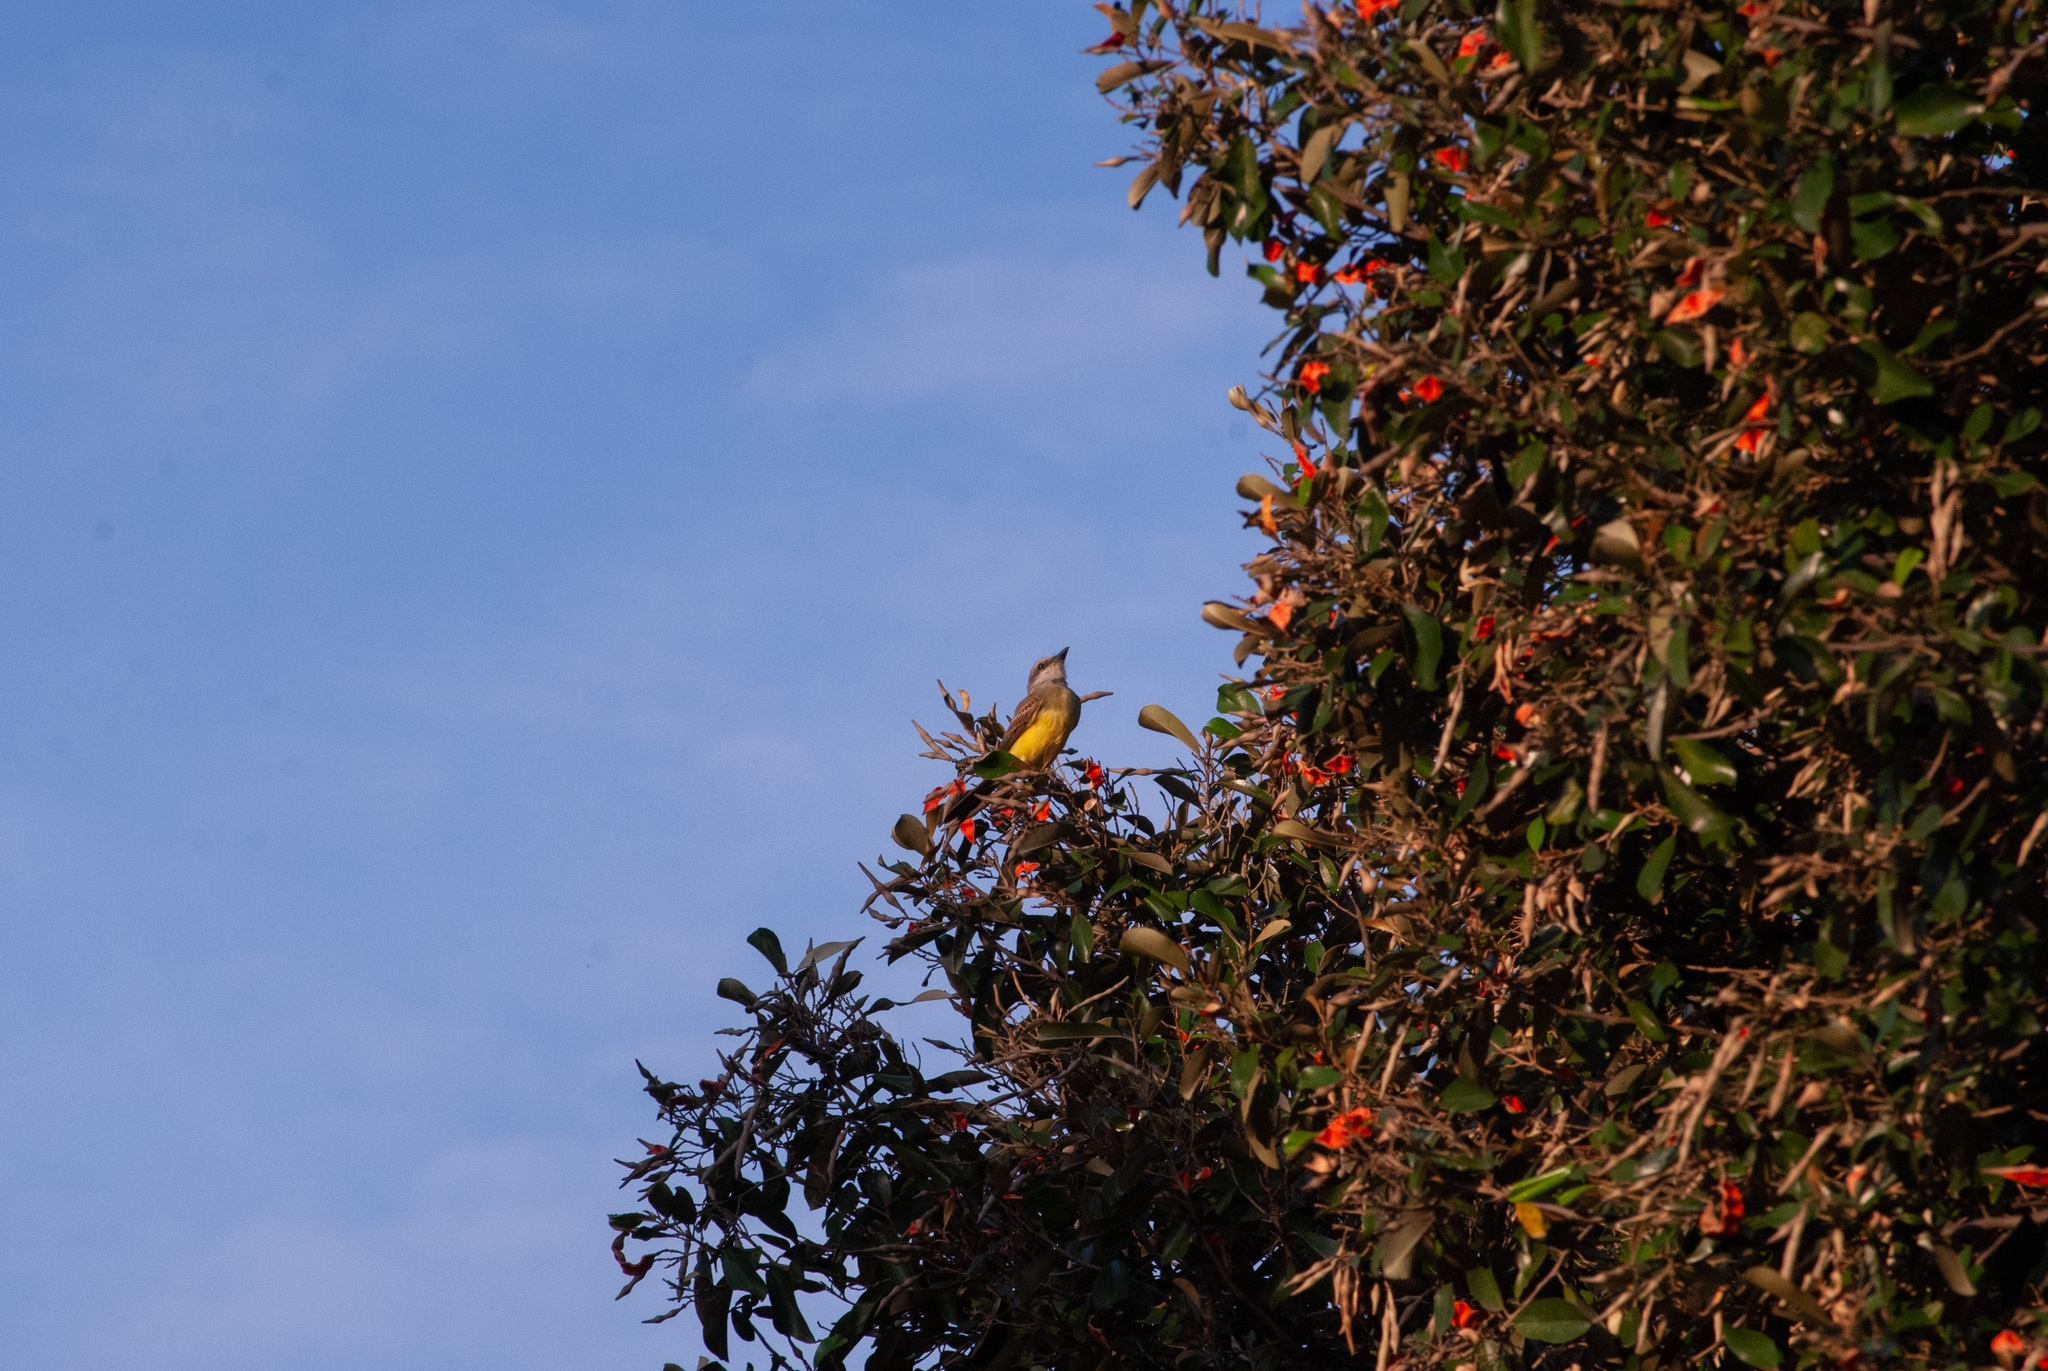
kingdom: Animalia
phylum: Chordata
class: Aves
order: Passeriformes
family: Tyrannidae
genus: Tyrannus
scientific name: Tyrannus melancholicus
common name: Tropical kingbird
